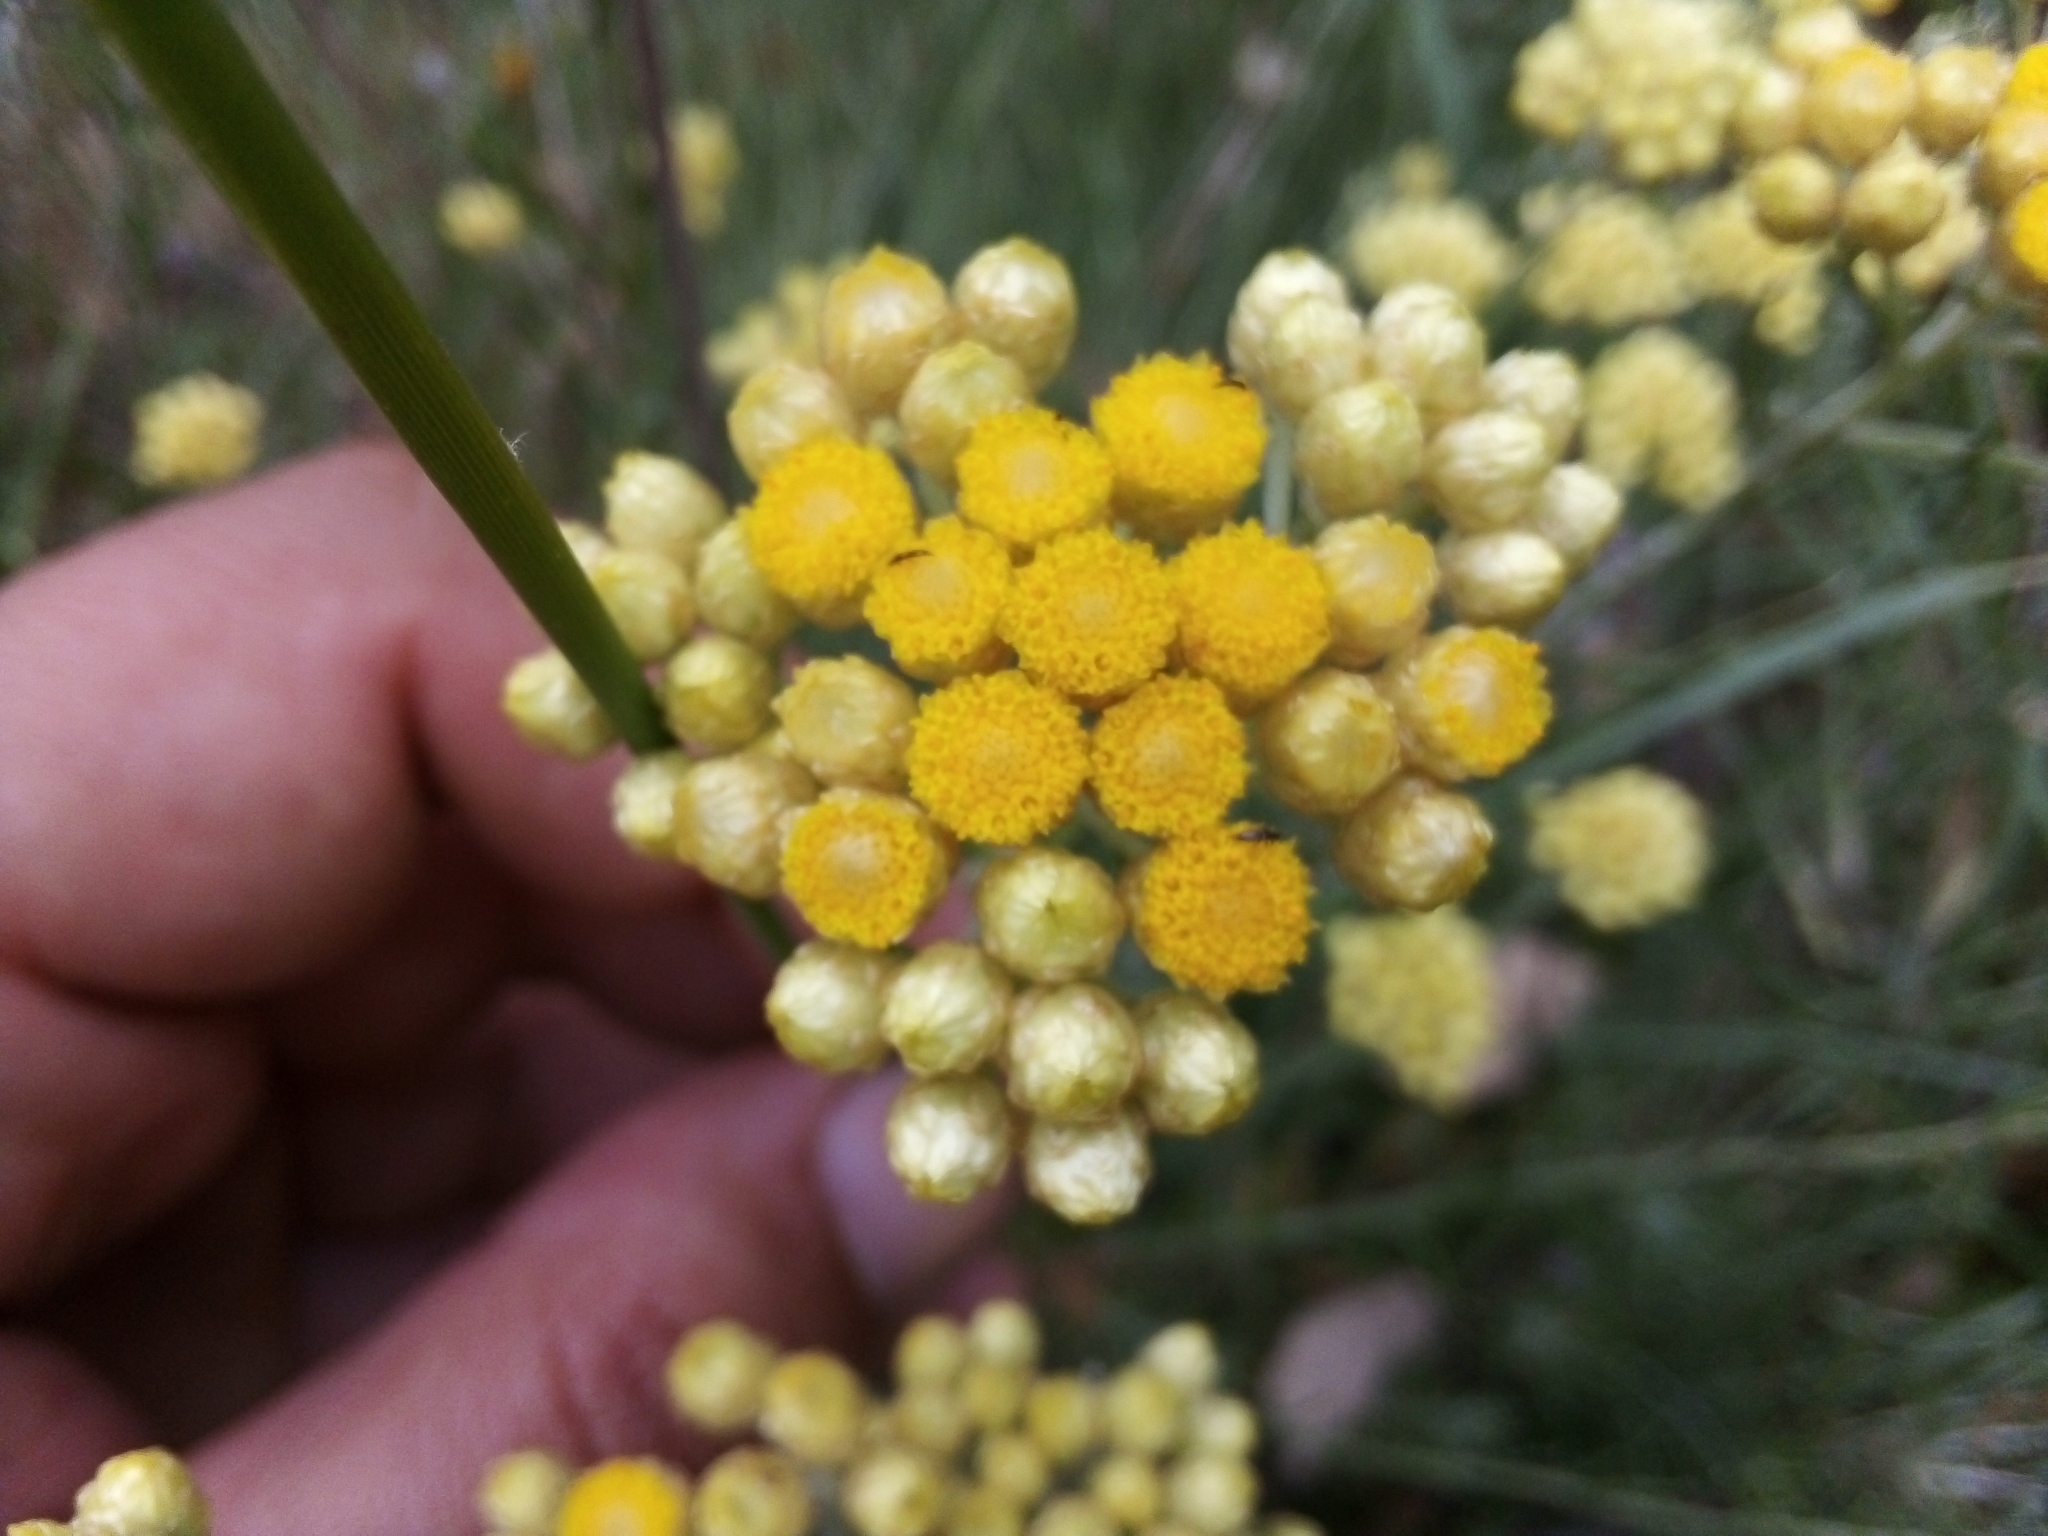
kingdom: Plantae
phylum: Tracheophyta
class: Magnoliopsida
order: Asterales
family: Asteraceae
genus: Helichrysum
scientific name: Helichrysum stoechas
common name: Goldilocks
